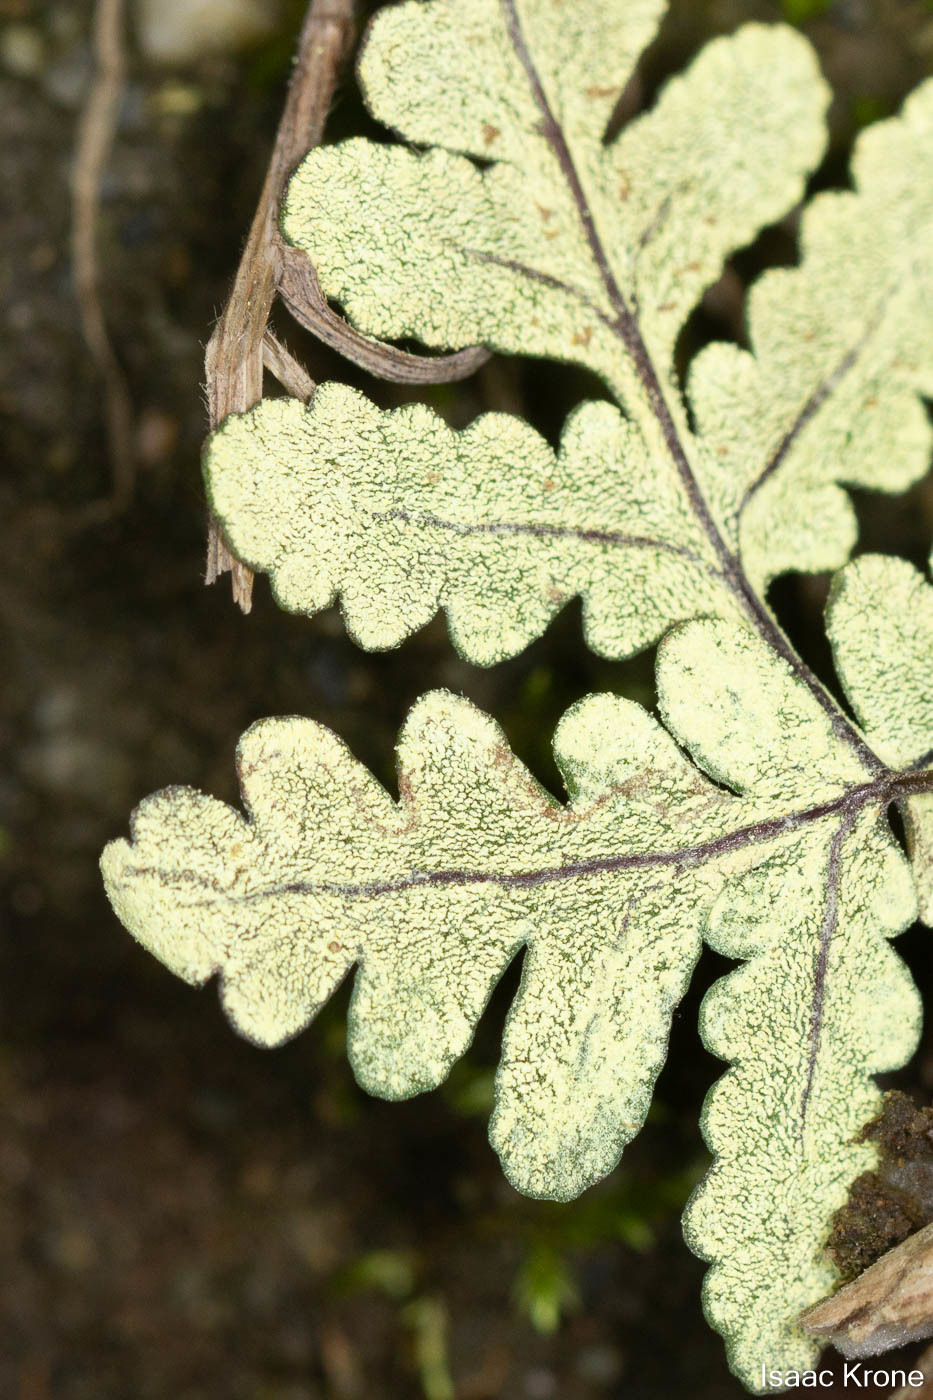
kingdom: Plantae
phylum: Tracheophyta
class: Polypodiopsida
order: Polypodiales
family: Pteridaceae
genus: Pentagramma
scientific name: Pentagramma triangularis
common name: Gold fern
